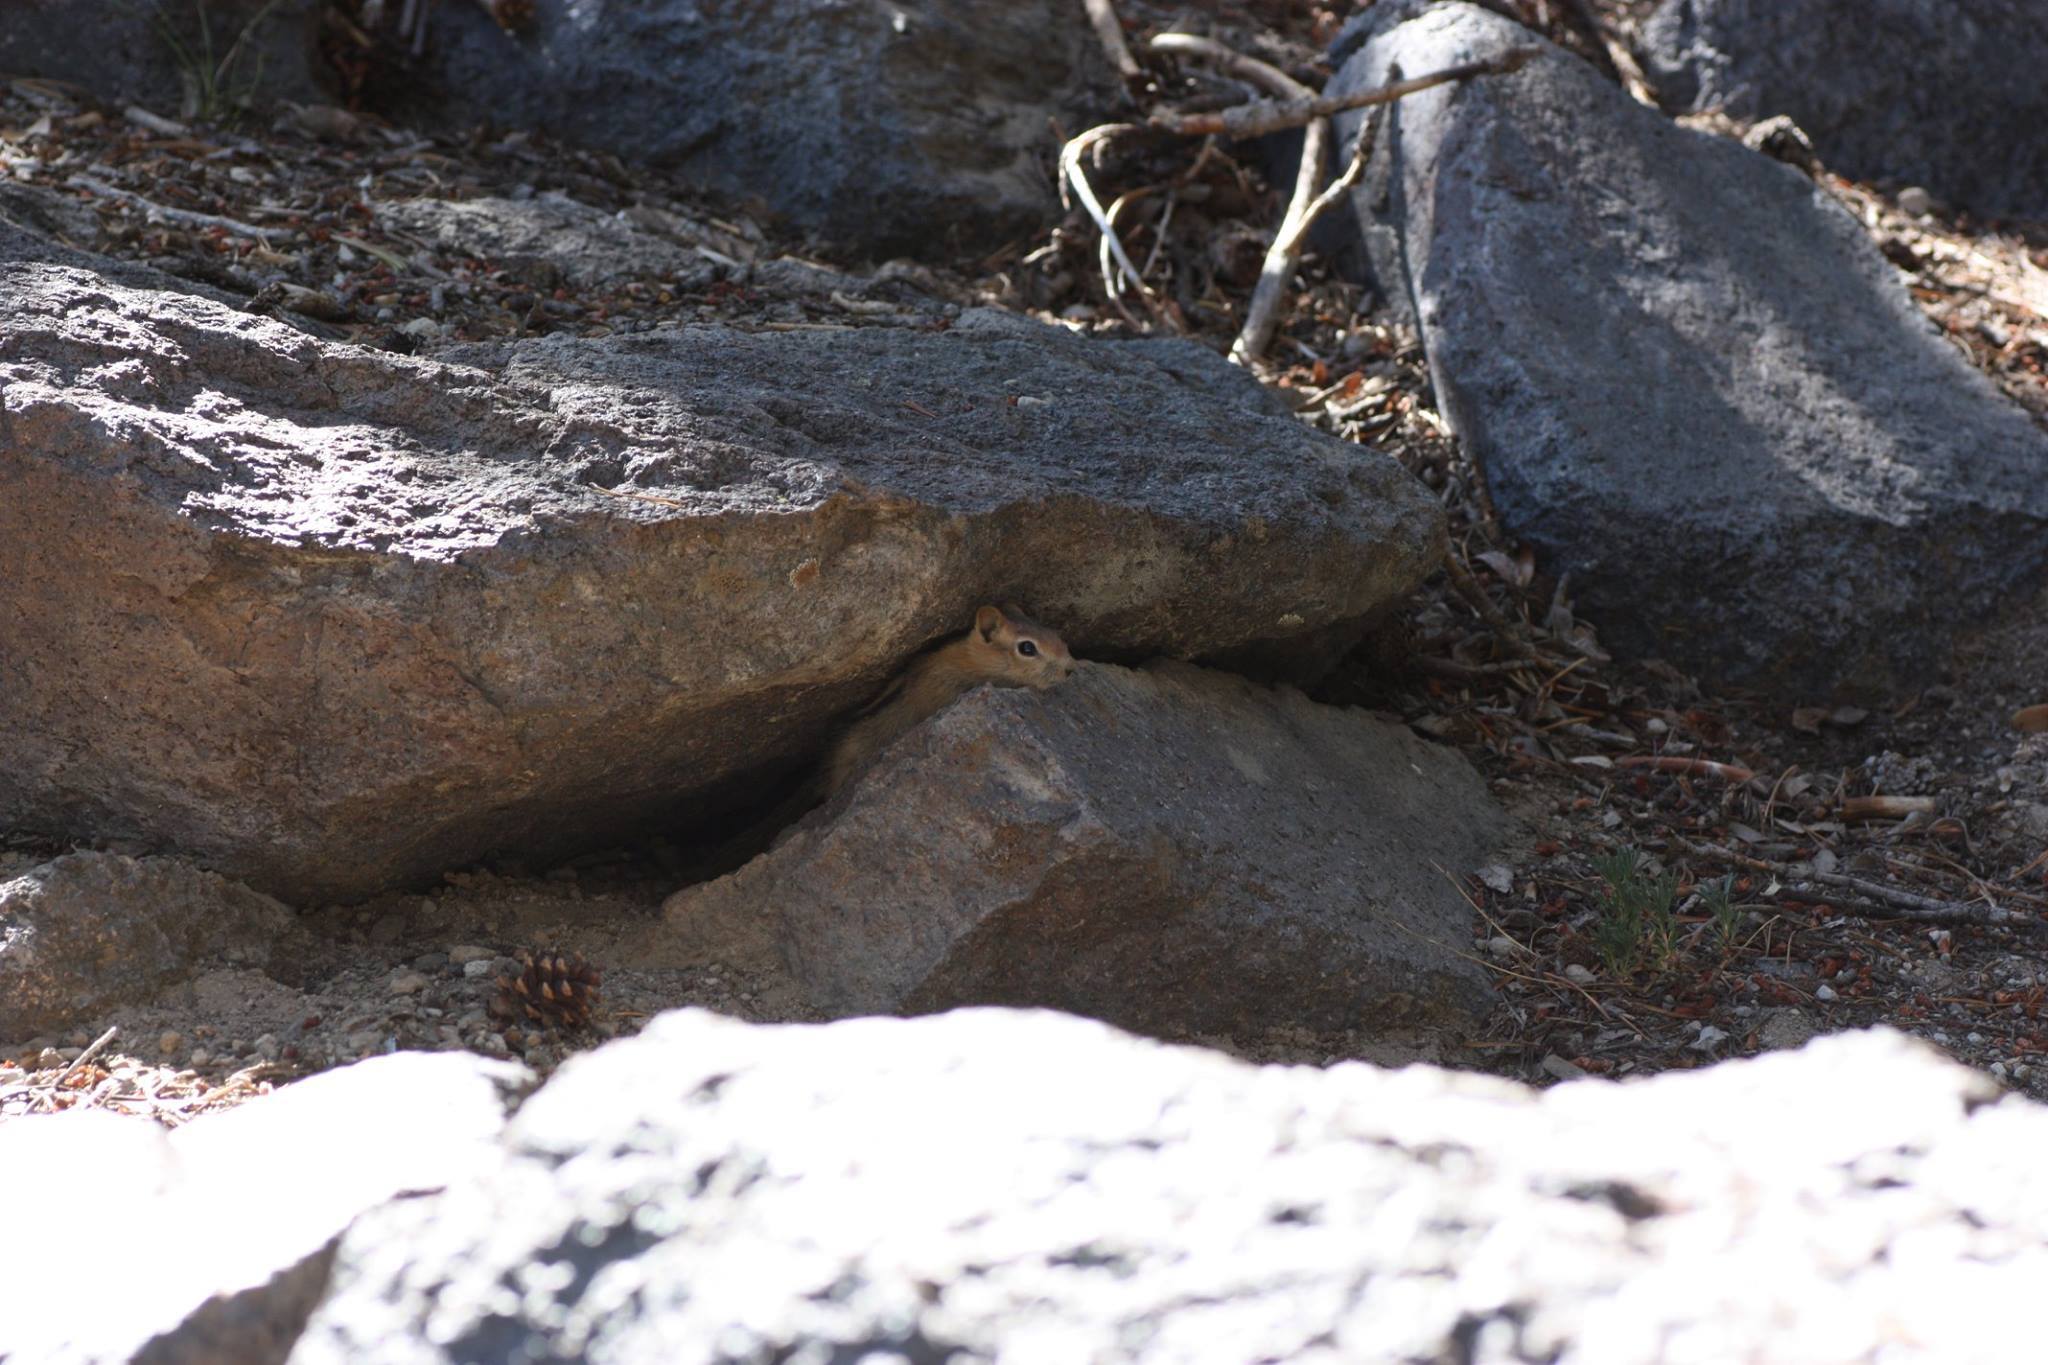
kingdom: Animalia
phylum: Chordata
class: Mammalia
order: Rodentia
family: Sciuridae
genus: Callospermophilus
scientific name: Callospermophilus lateralis
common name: Golden-mantled ground squirrel
